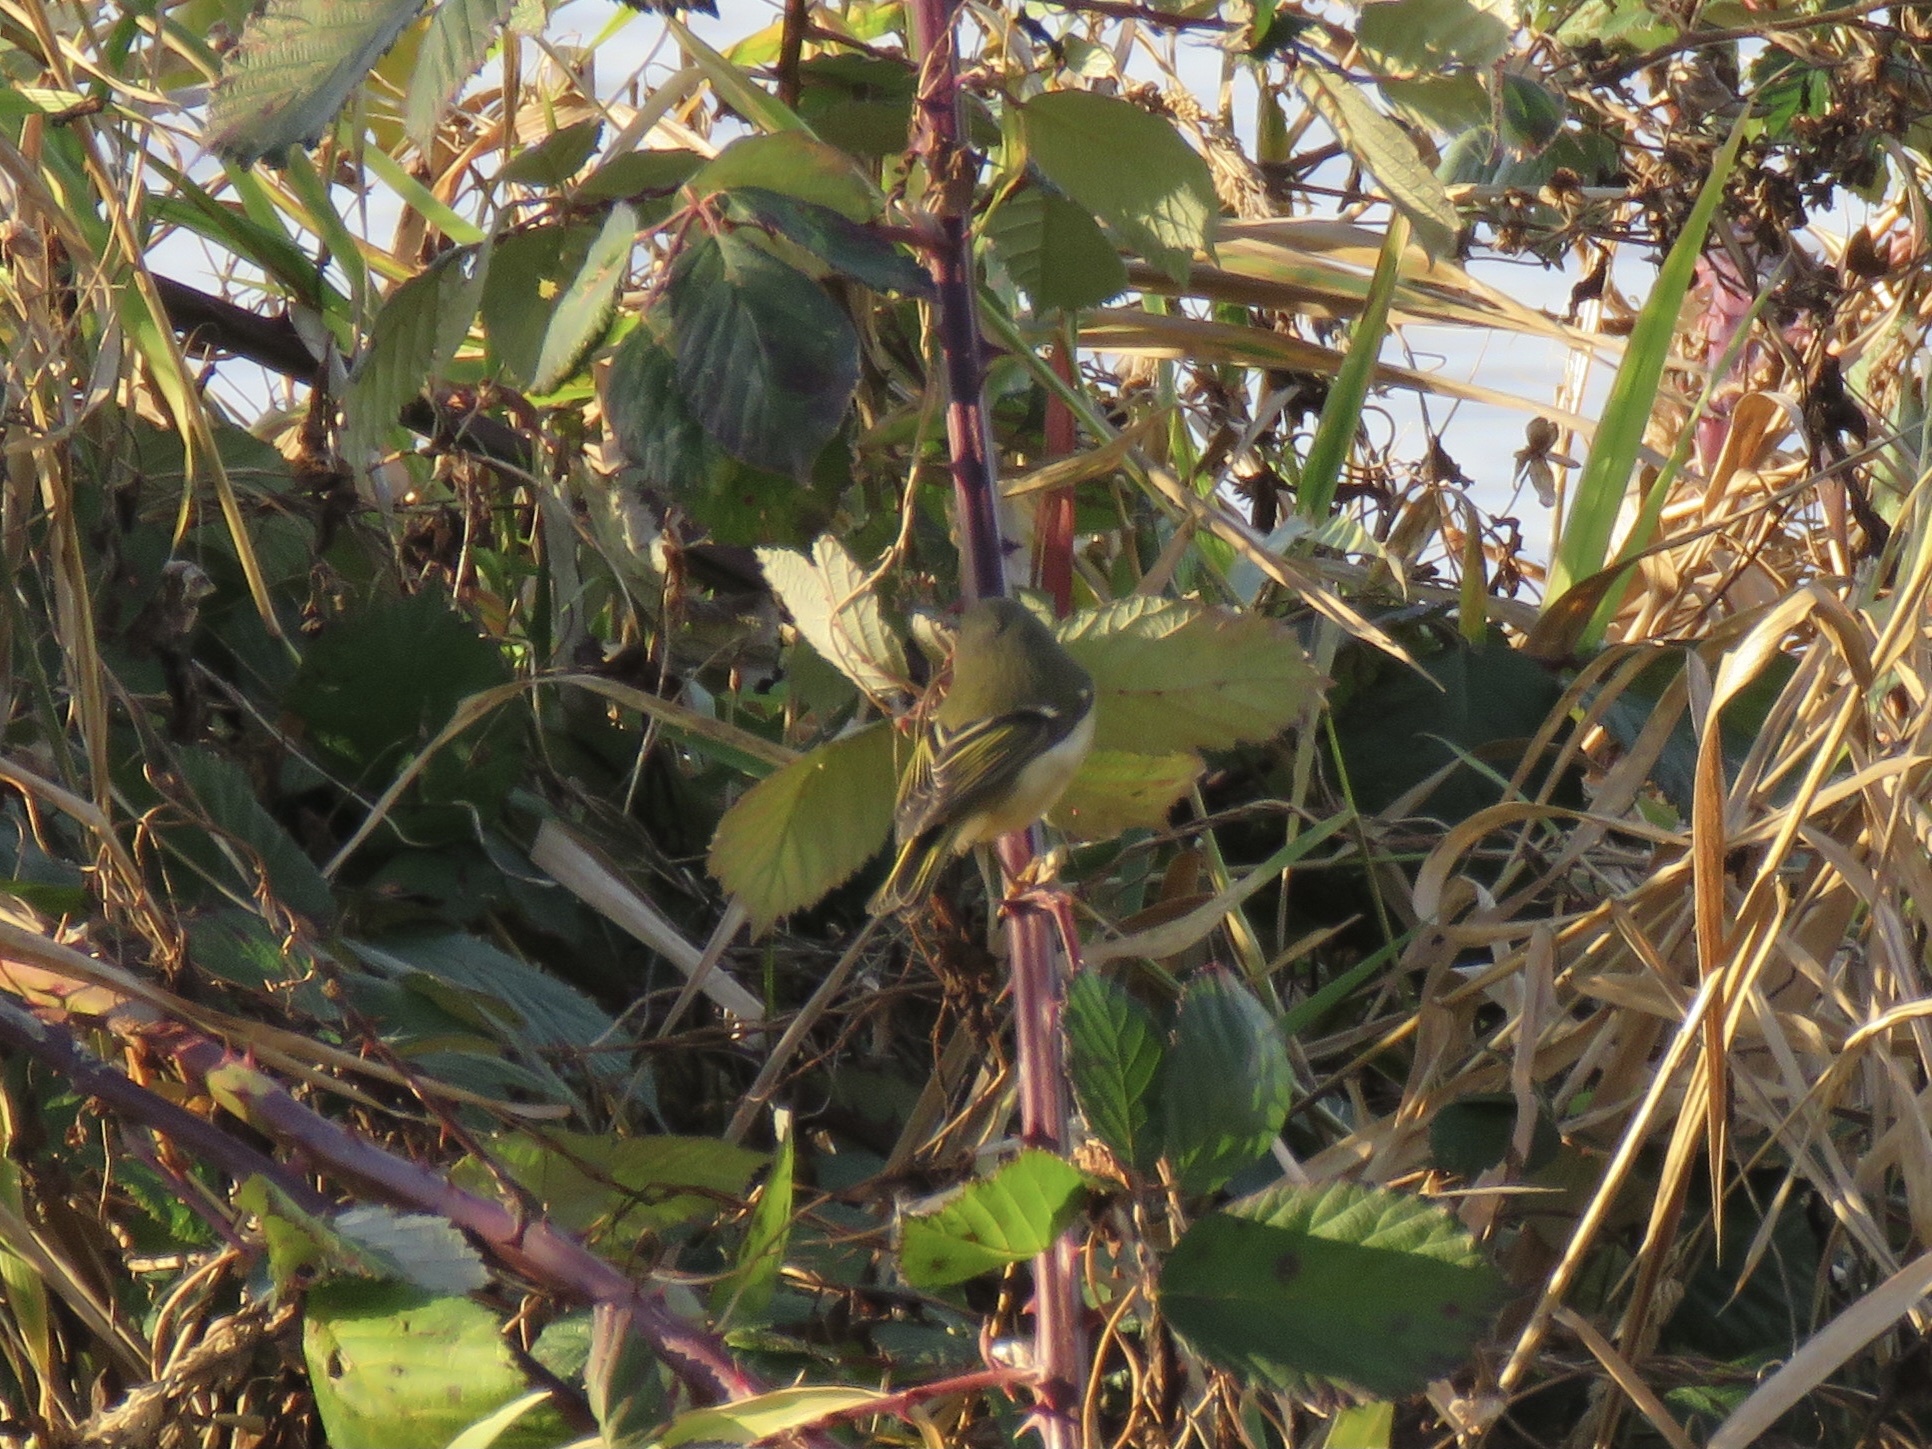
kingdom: Animalia
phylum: Chordata
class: Aves
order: Passeriformes
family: Regulidae
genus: Regulus
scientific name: Regulus calendula
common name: Ruby-crowned kinglet
